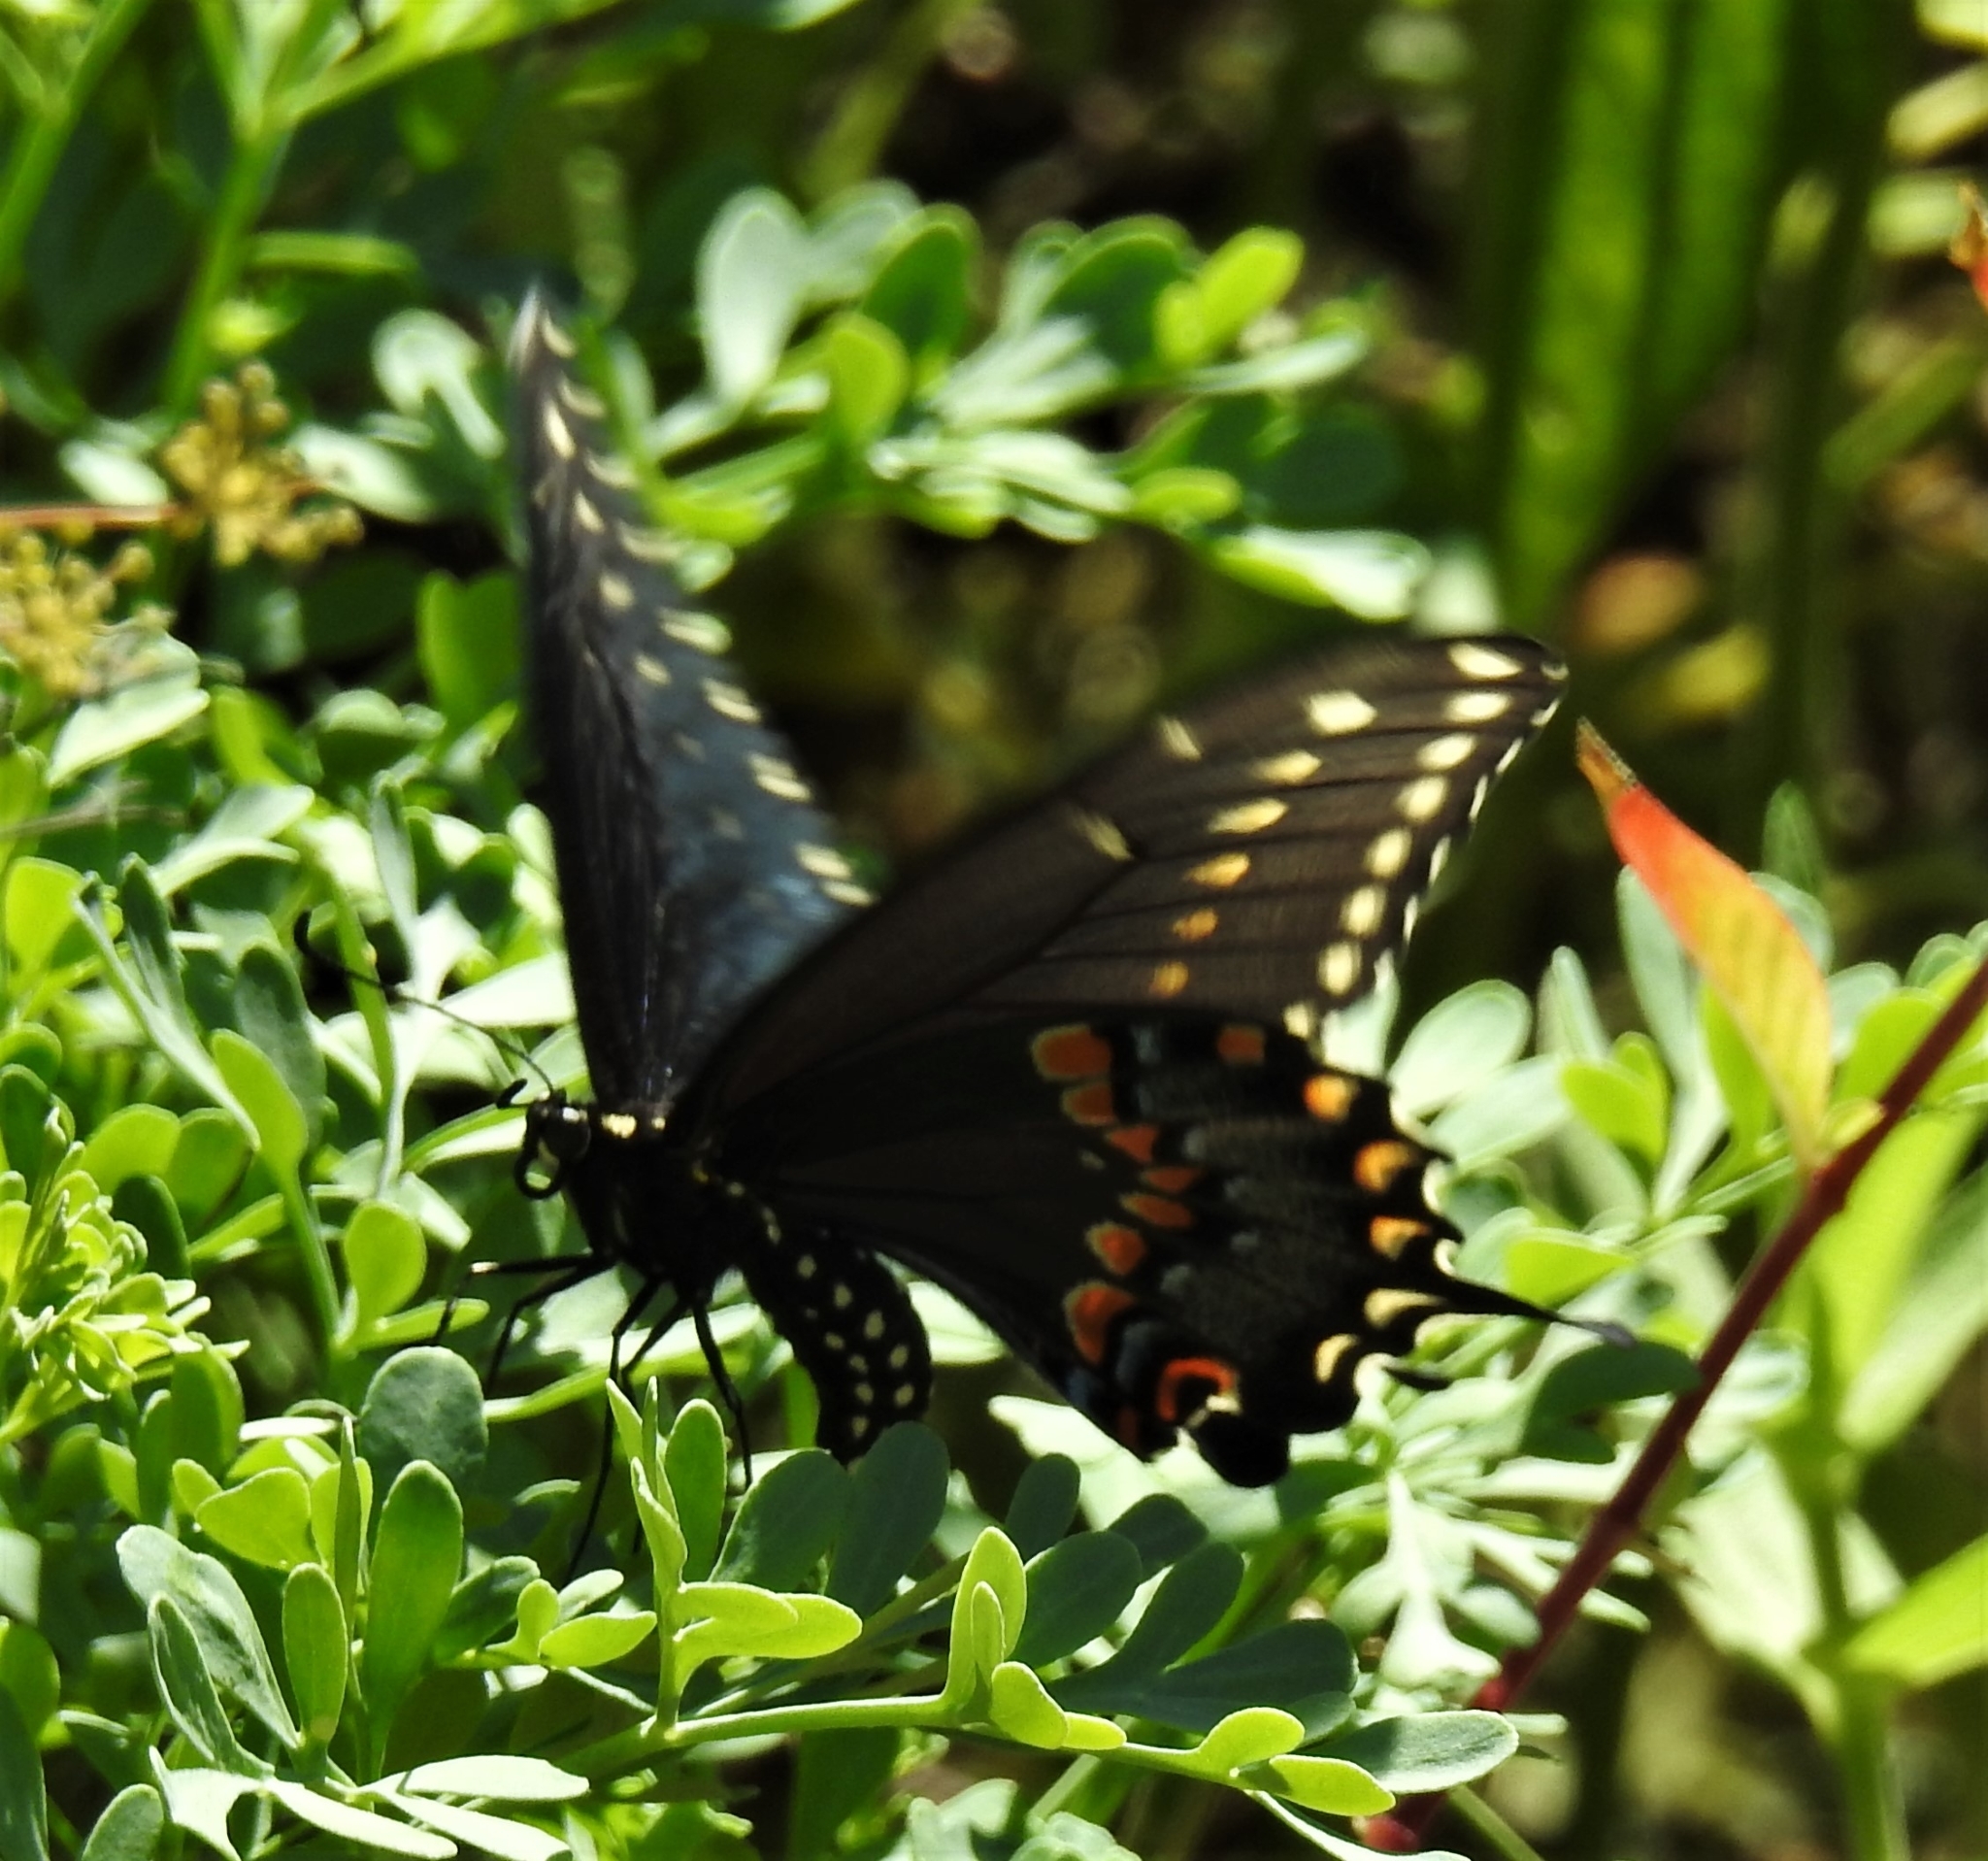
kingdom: Animalia
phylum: Arthropoda
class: Insecta
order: Lepidoptera
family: Papilionidae
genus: Papilio
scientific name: Papilio polyxenes
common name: Black swallowtail
